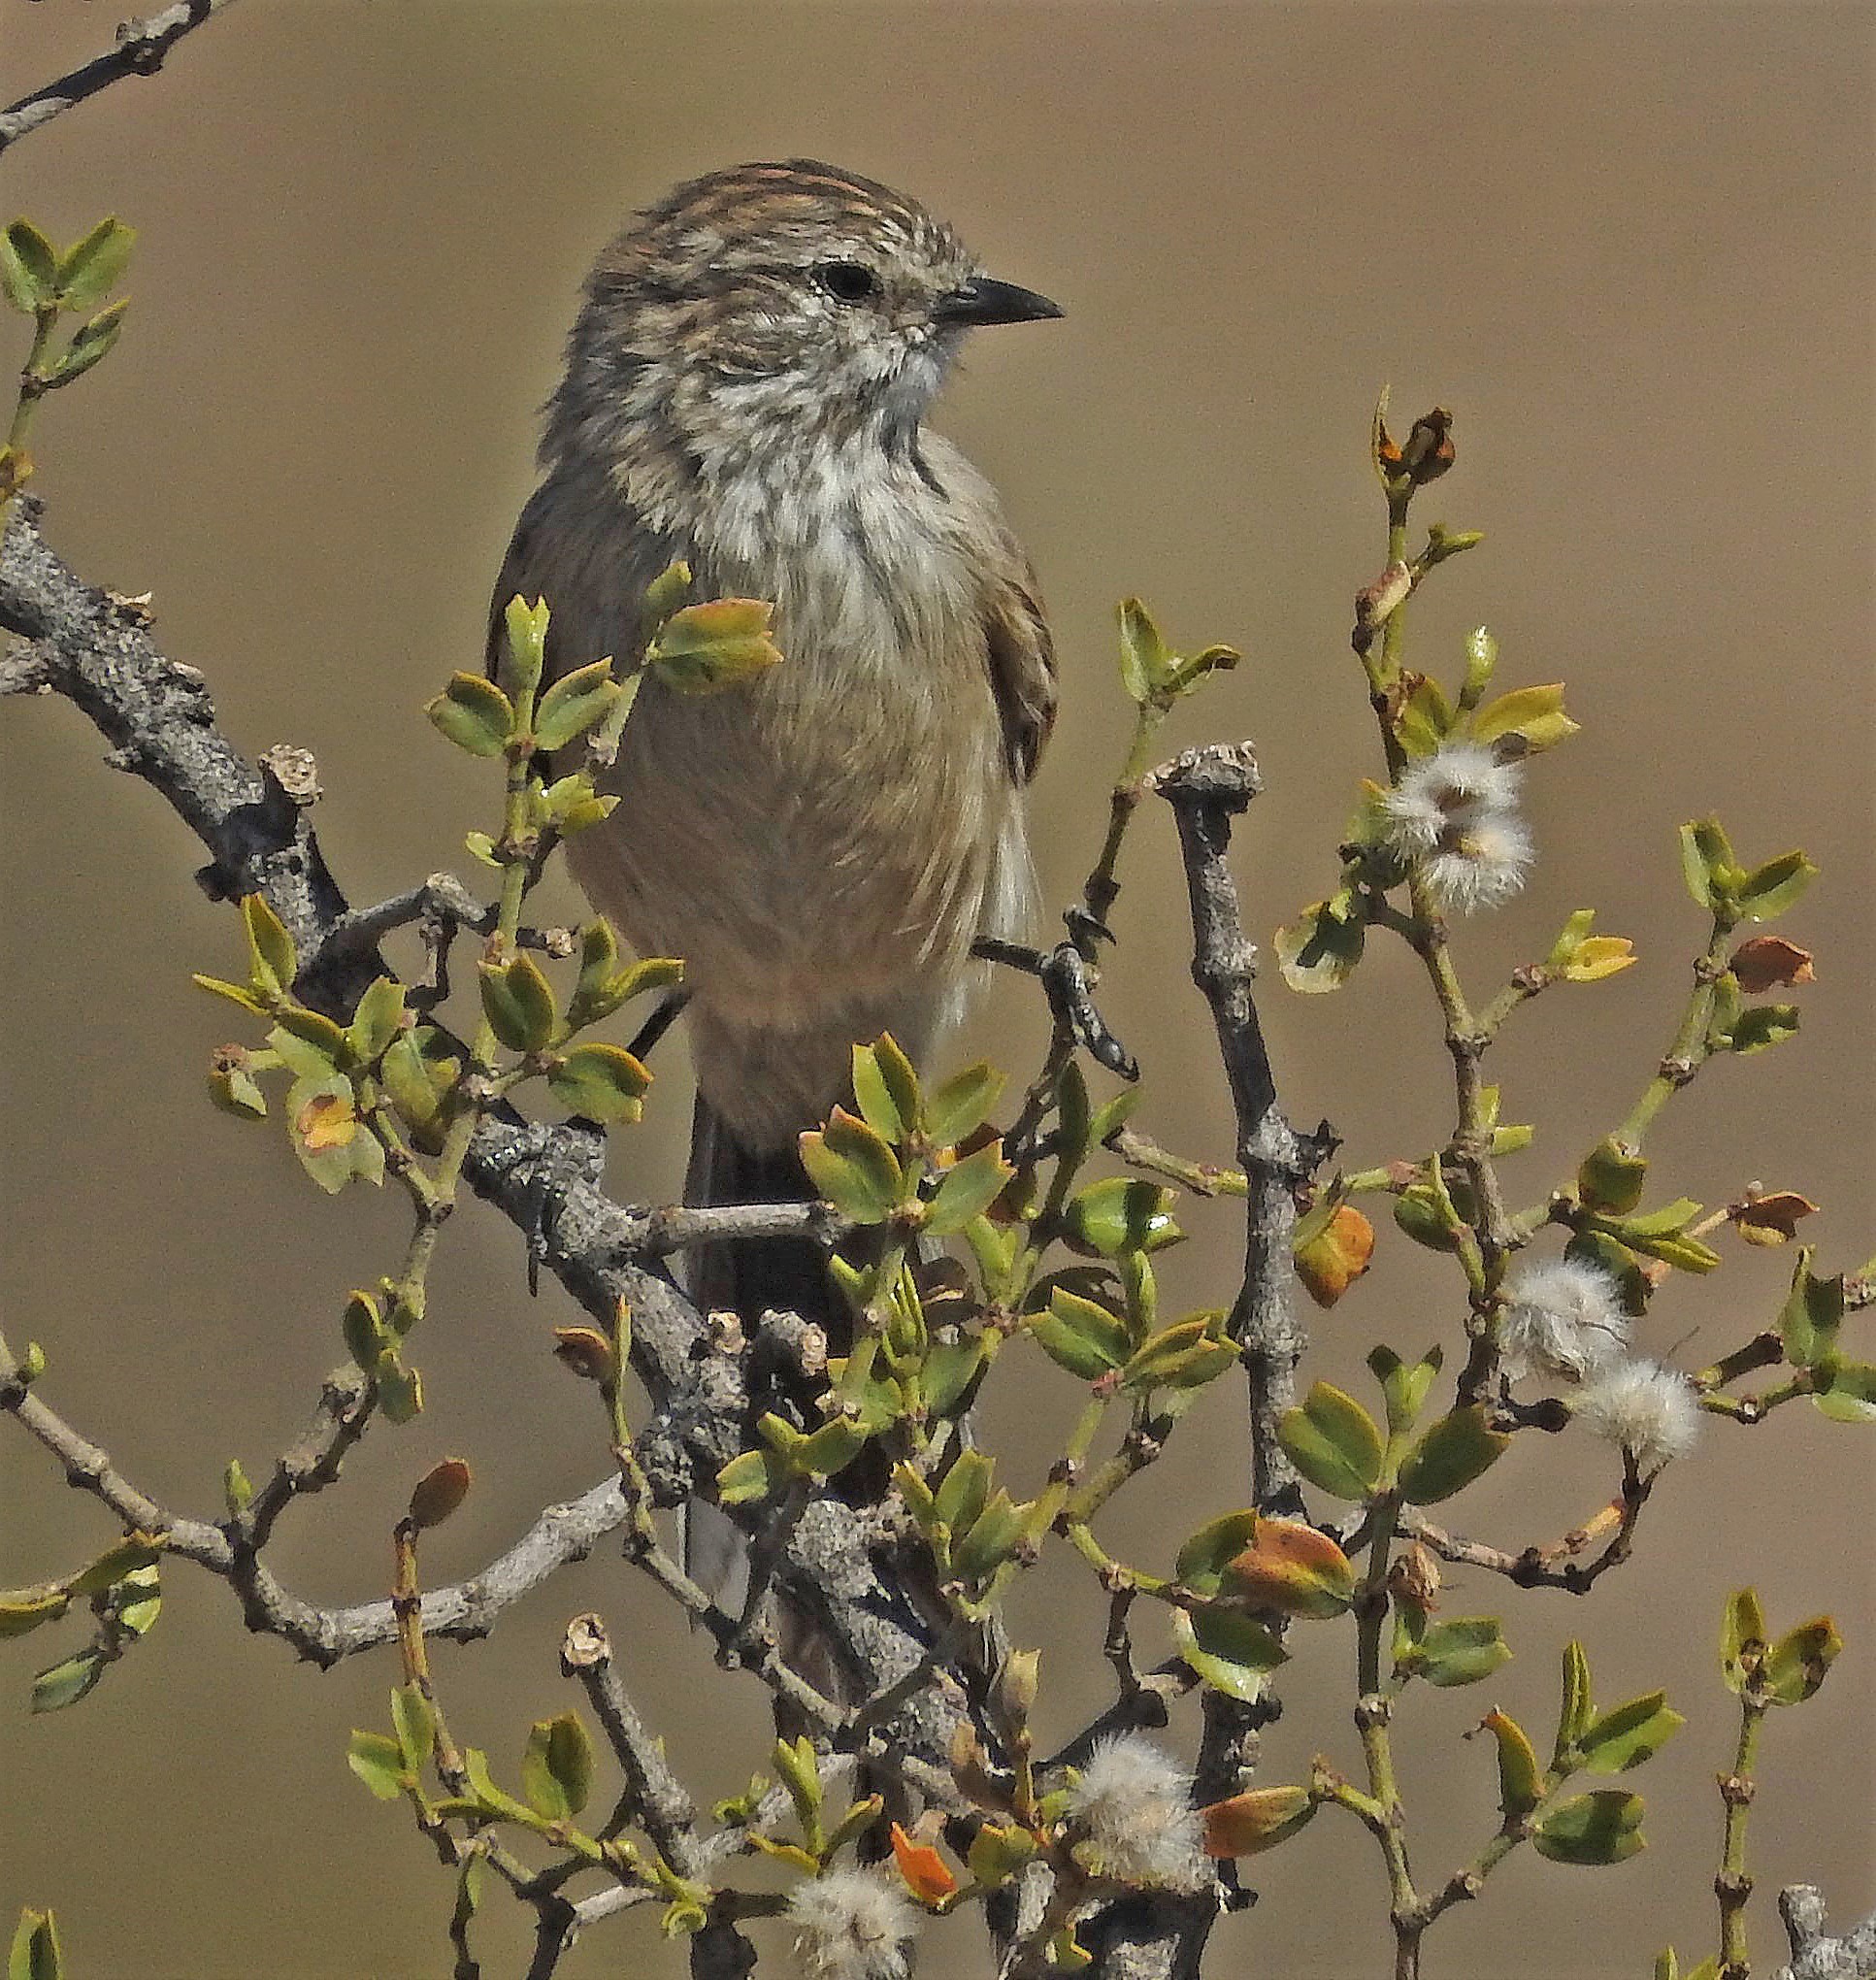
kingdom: Animalia
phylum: Chordata
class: Aves
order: Passeriformes
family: Furnariidae
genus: Leptasthenura
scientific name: Leptasthenura aegithaloides
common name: Plain-mantled tit-spinetail
